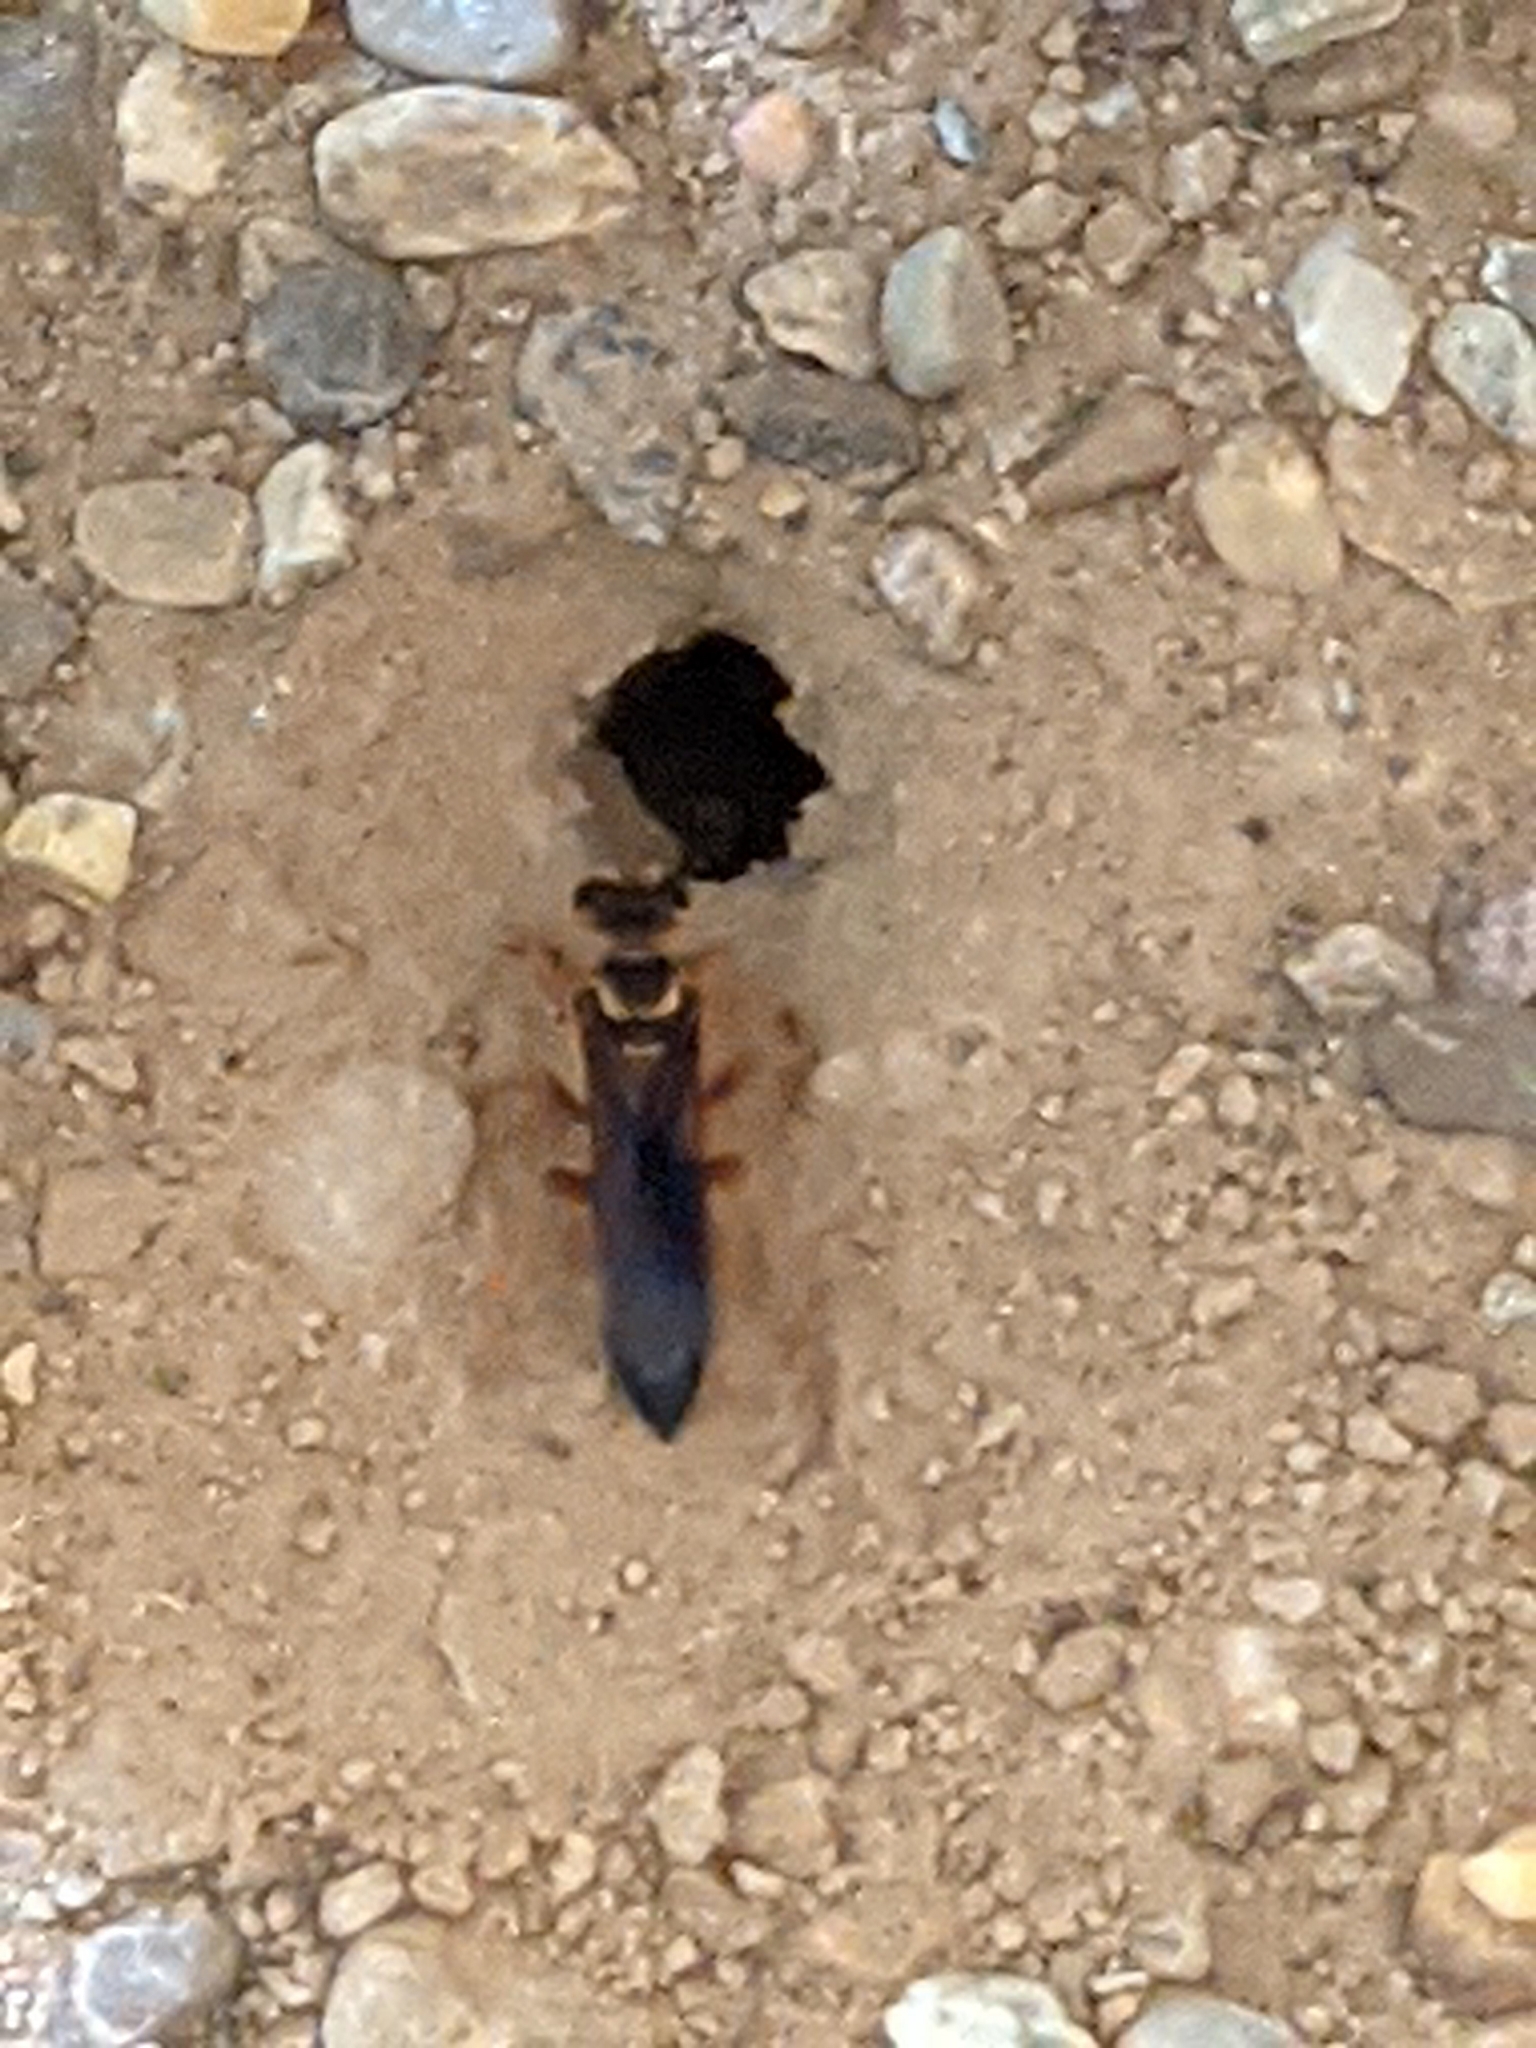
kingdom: Animalia
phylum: Arthropoda
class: Insecta
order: Hymenoptera
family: Sphecidae
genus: Sphex
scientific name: Sphex
